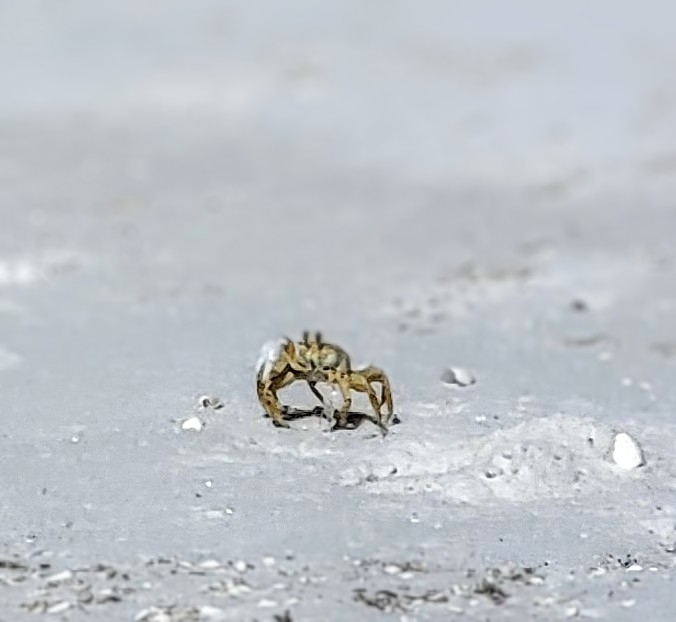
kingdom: Animalia
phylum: Arthropoda
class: Malacostraca
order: Decapoda
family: Ocypodidae
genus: Ocypode
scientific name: Ocypode quadrata
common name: Ghost crab
